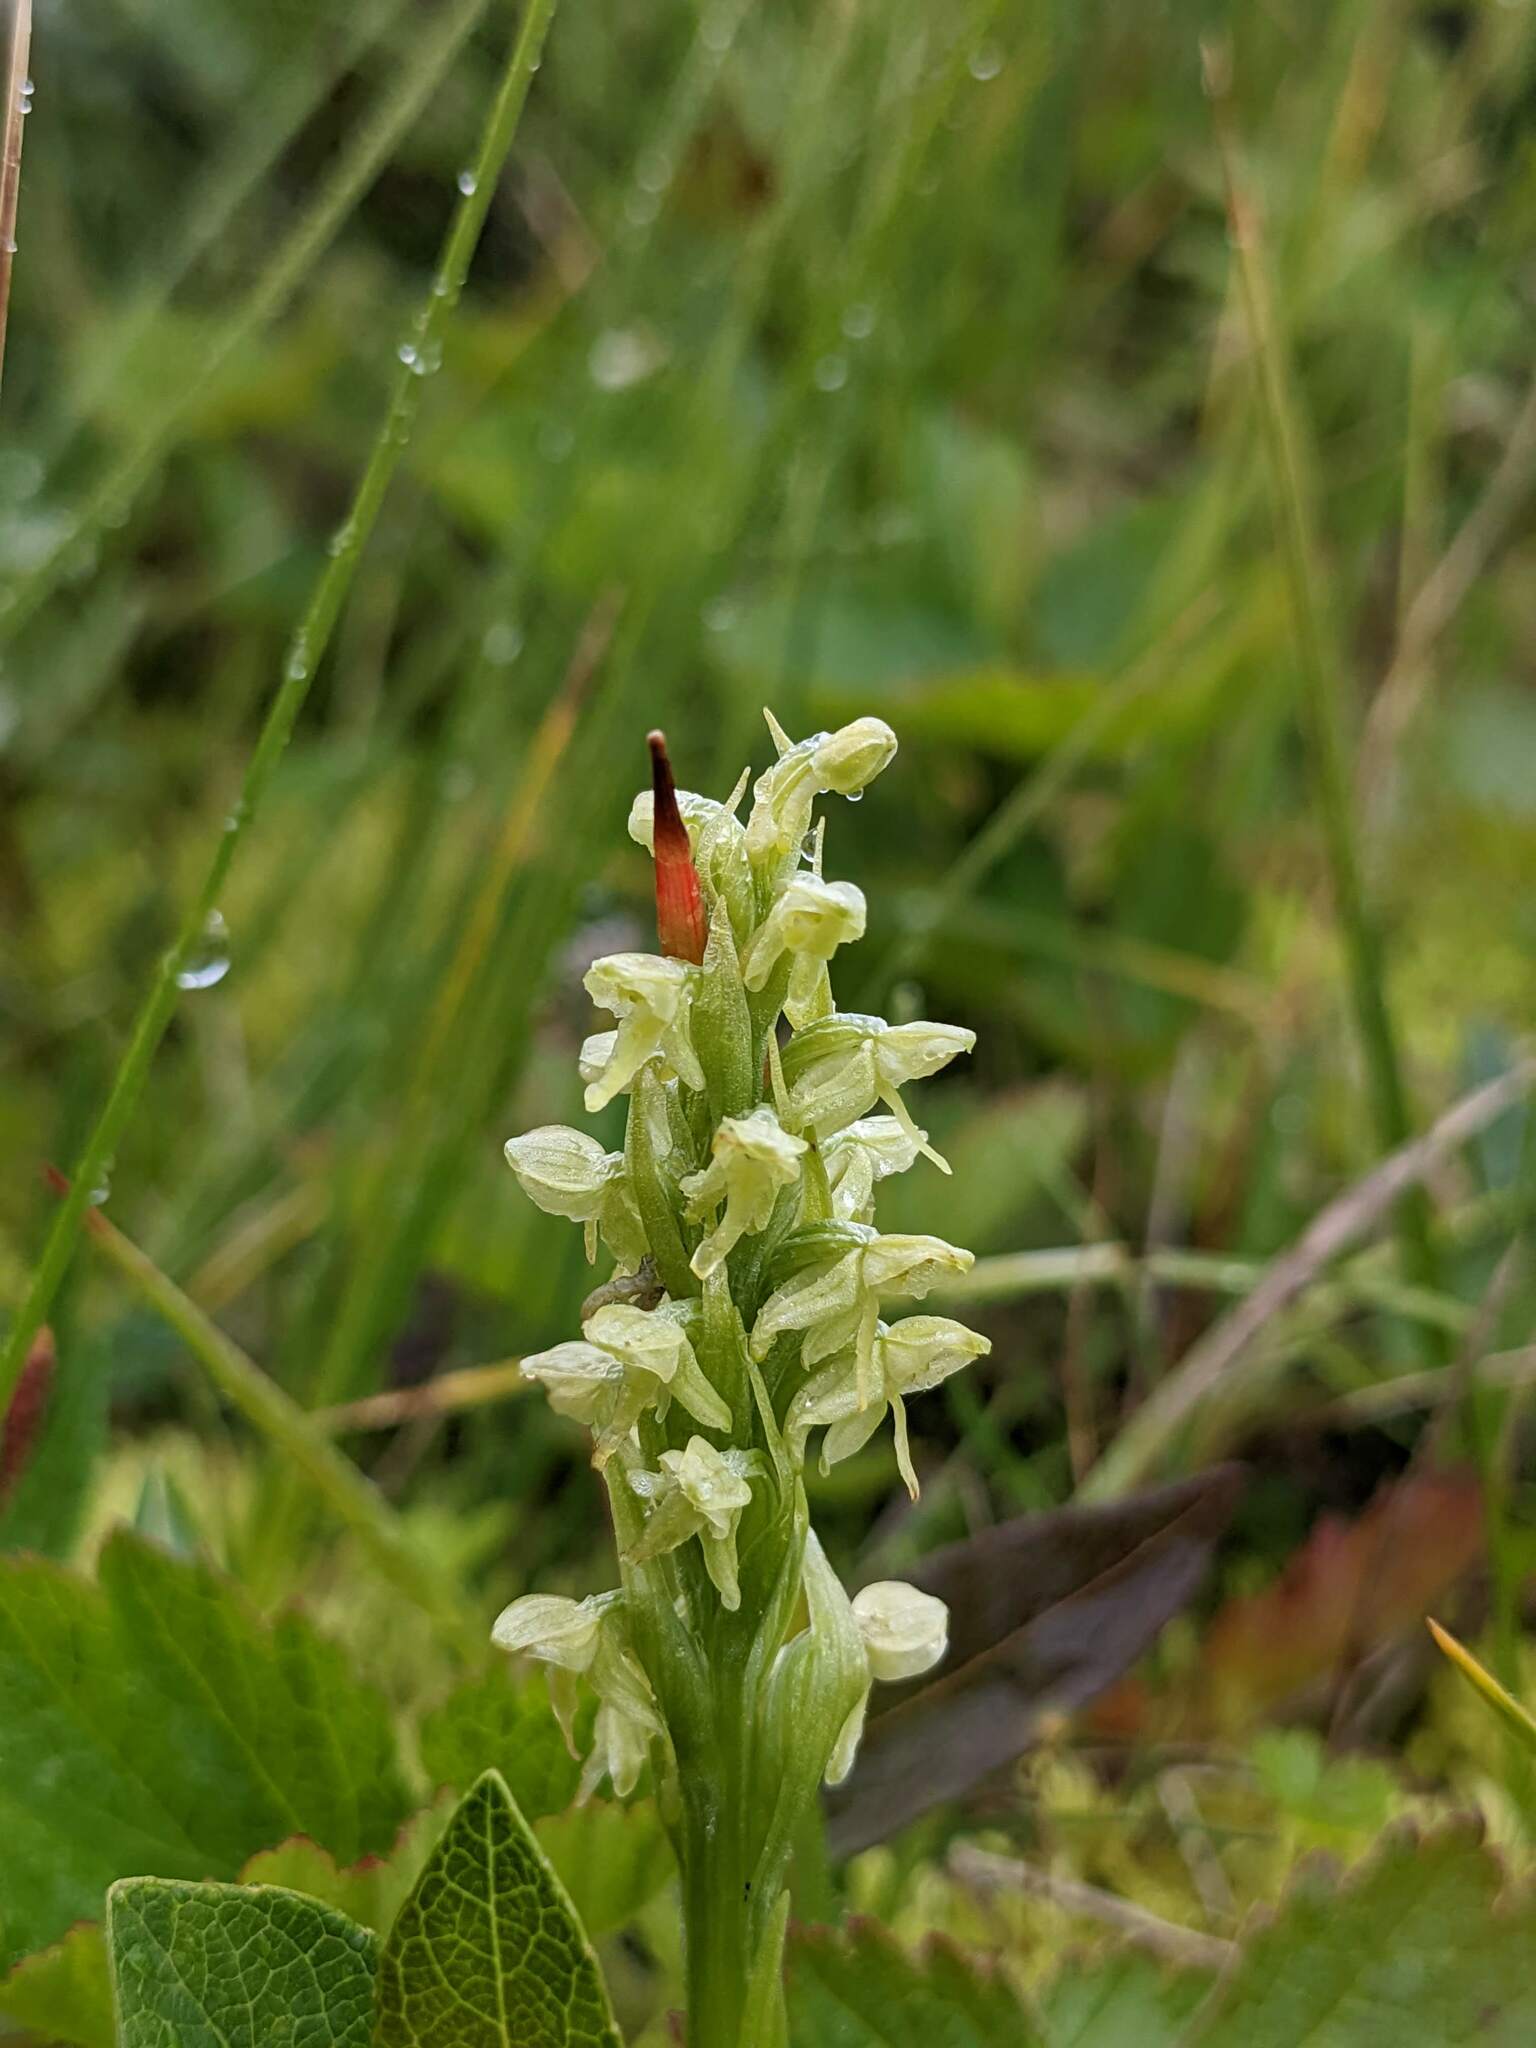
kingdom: Plantae
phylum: Tracheophyta
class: Liliopsida
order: Asparagales
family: Orchidaceae
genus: Platanthera
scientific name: Platanthera hyperborea
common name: Northern green orchid
